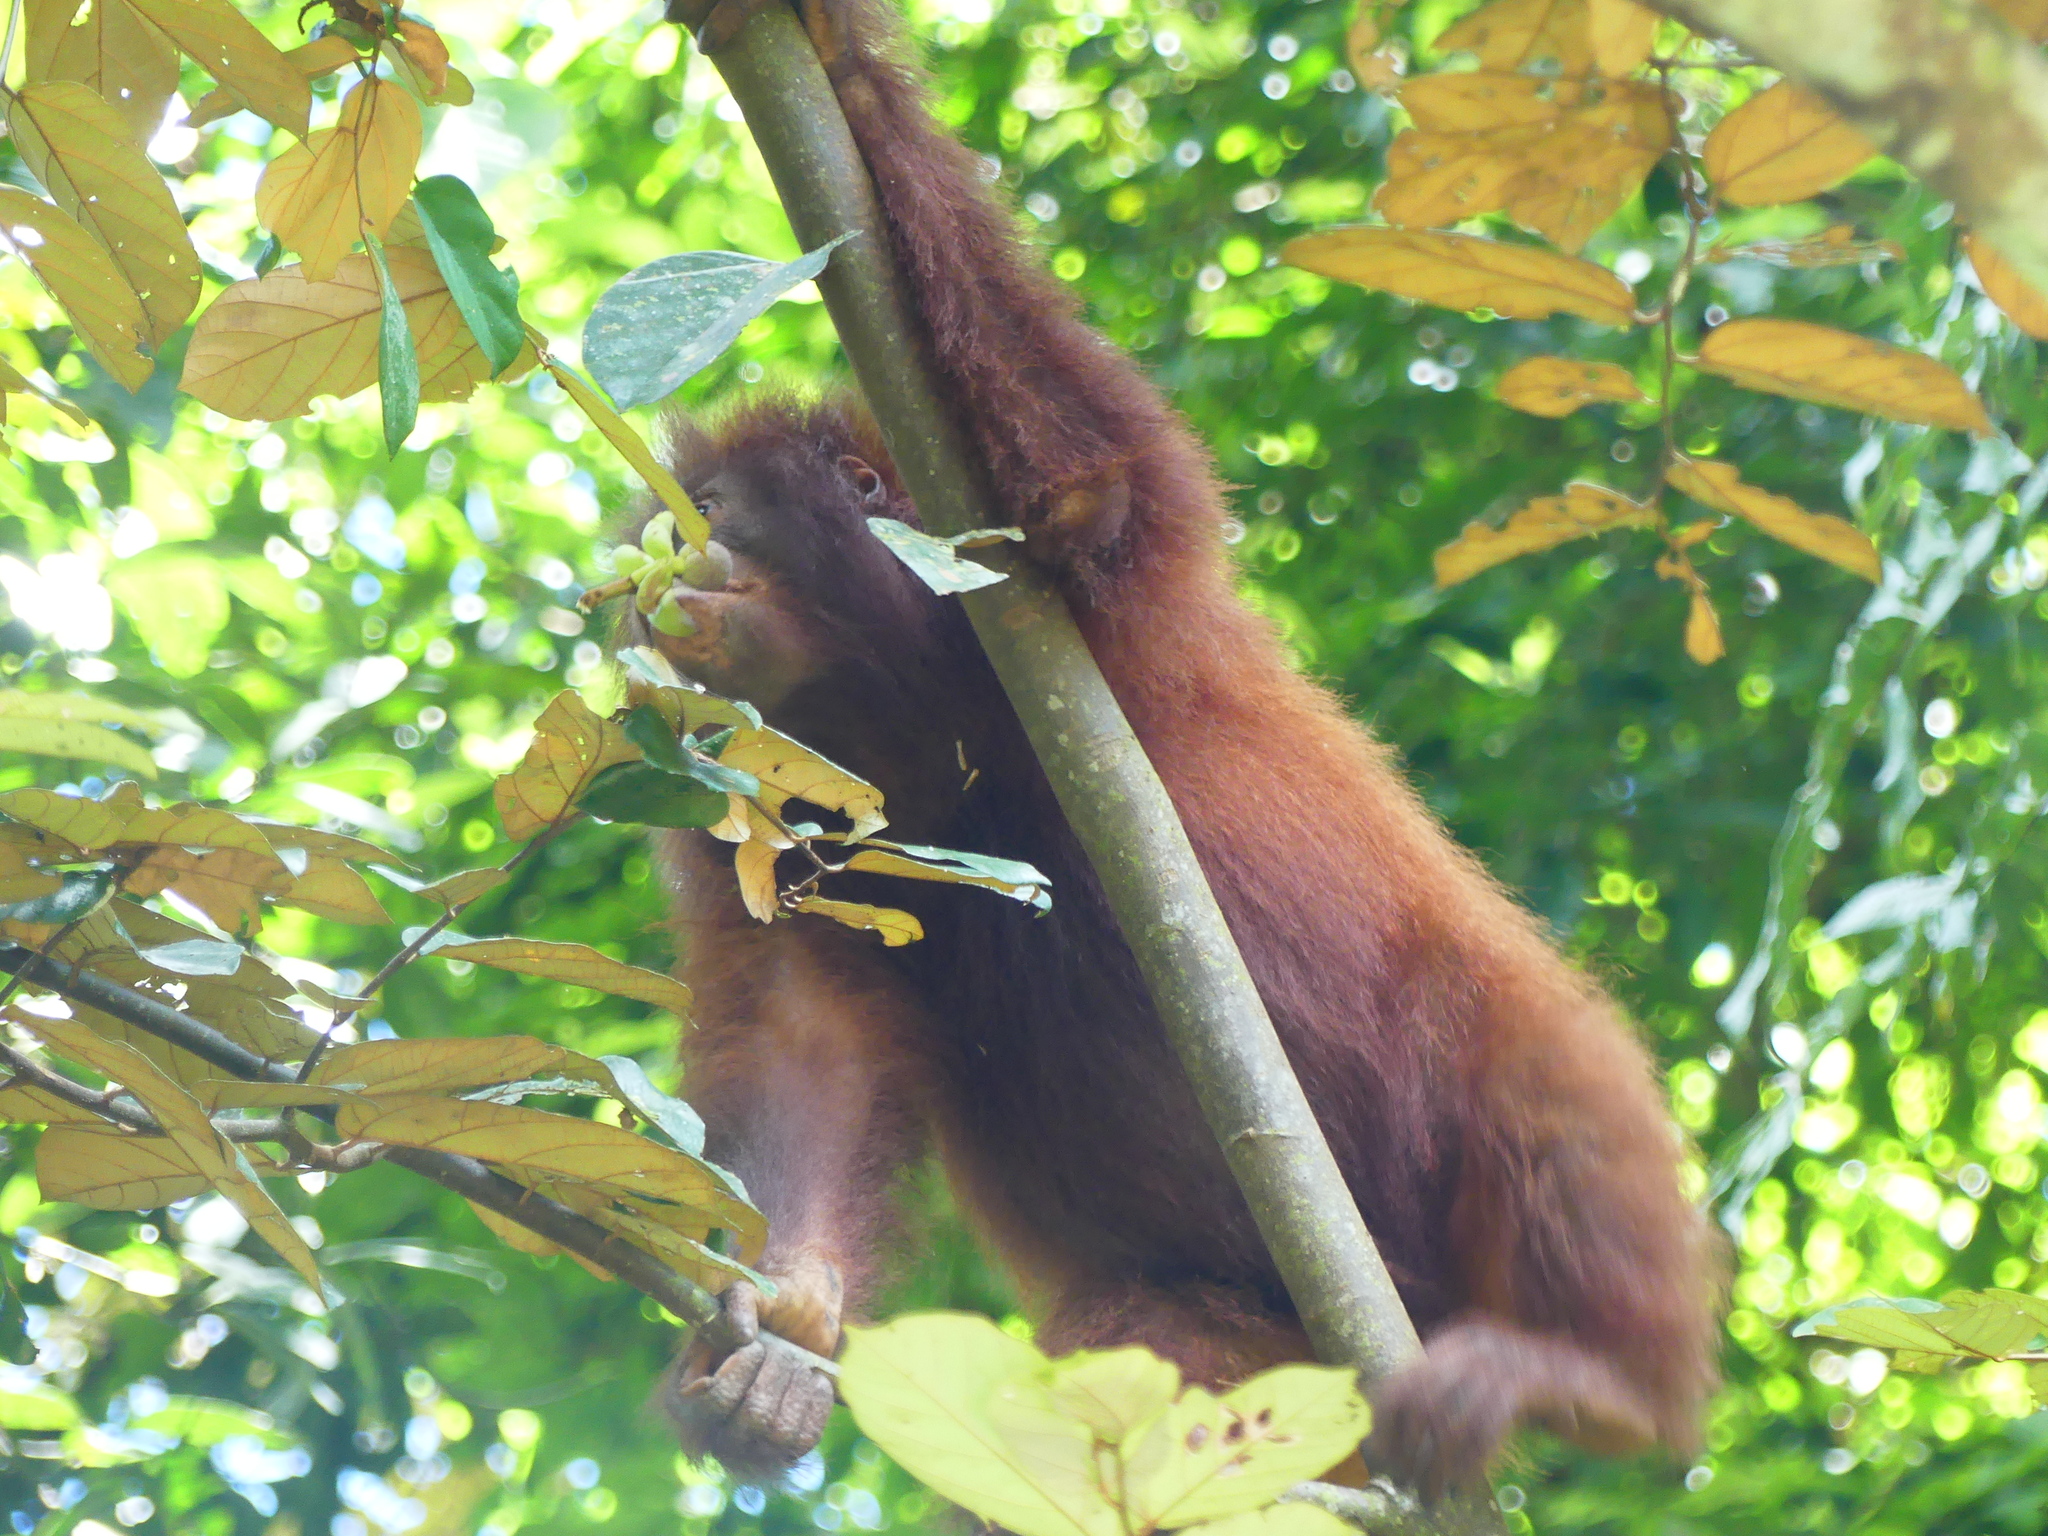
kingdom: Animalia
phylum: Chordata
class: Mammalia
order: Primates
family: Hominidae
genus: Pongo
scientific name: Pongo pygmaeus
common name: Bornean orangutan
